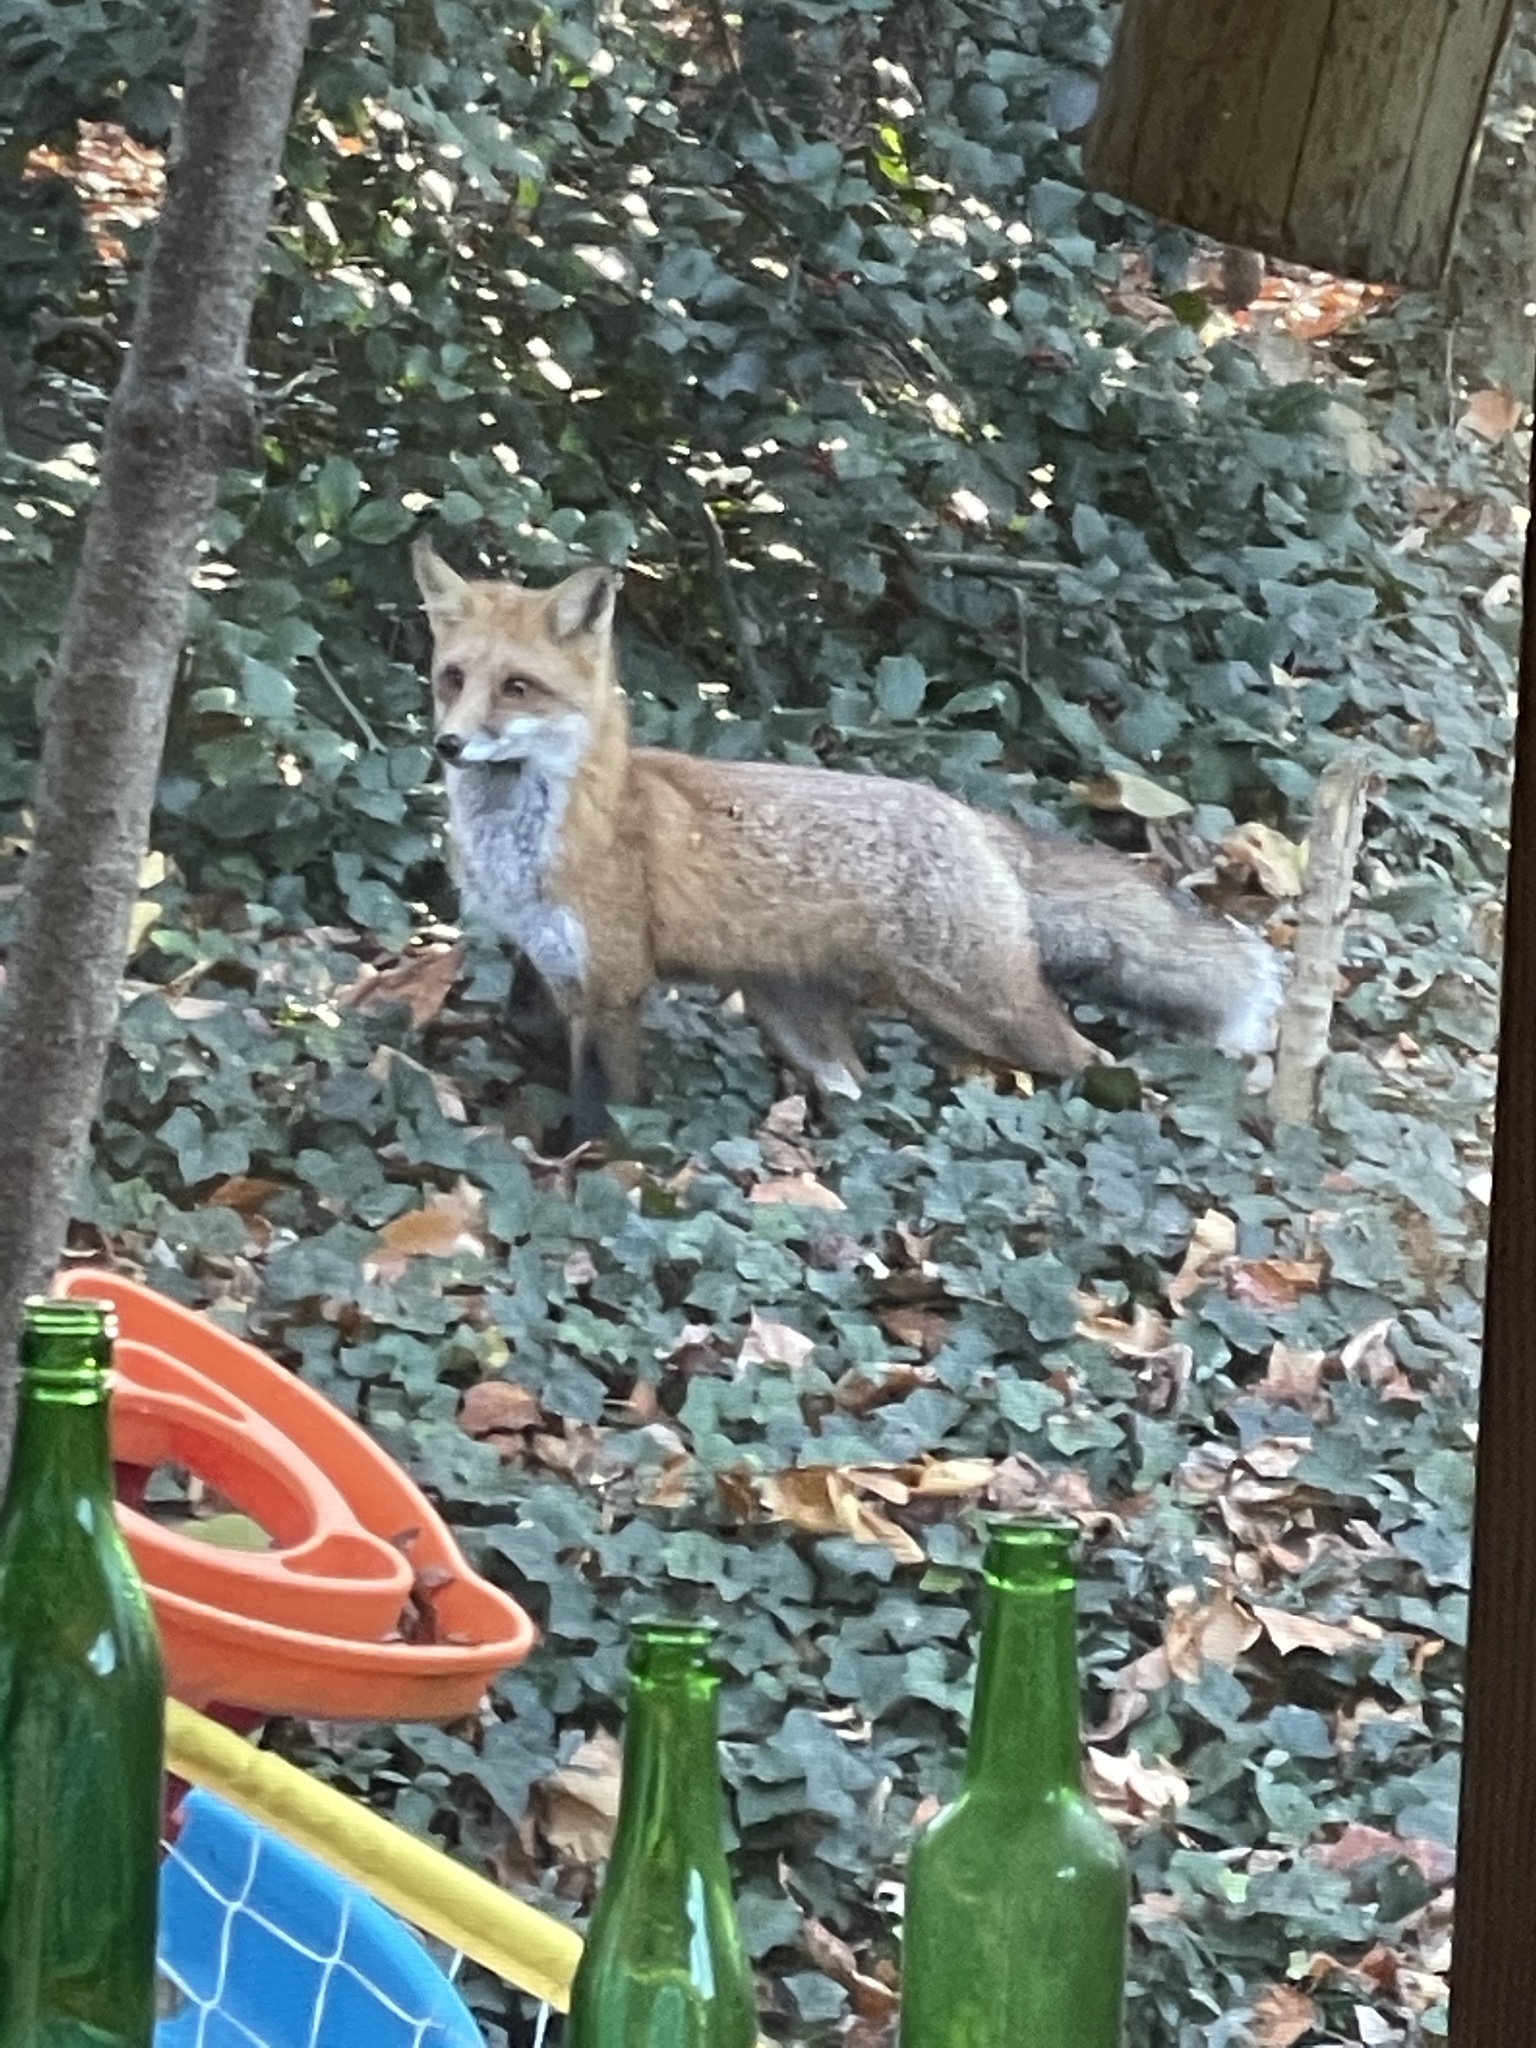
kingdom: Animalia
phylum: Chordata
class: Mammalia
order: Carnivora
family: Canidae
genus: Vulpes
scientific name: Vulpes vulpes
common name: Red fox
